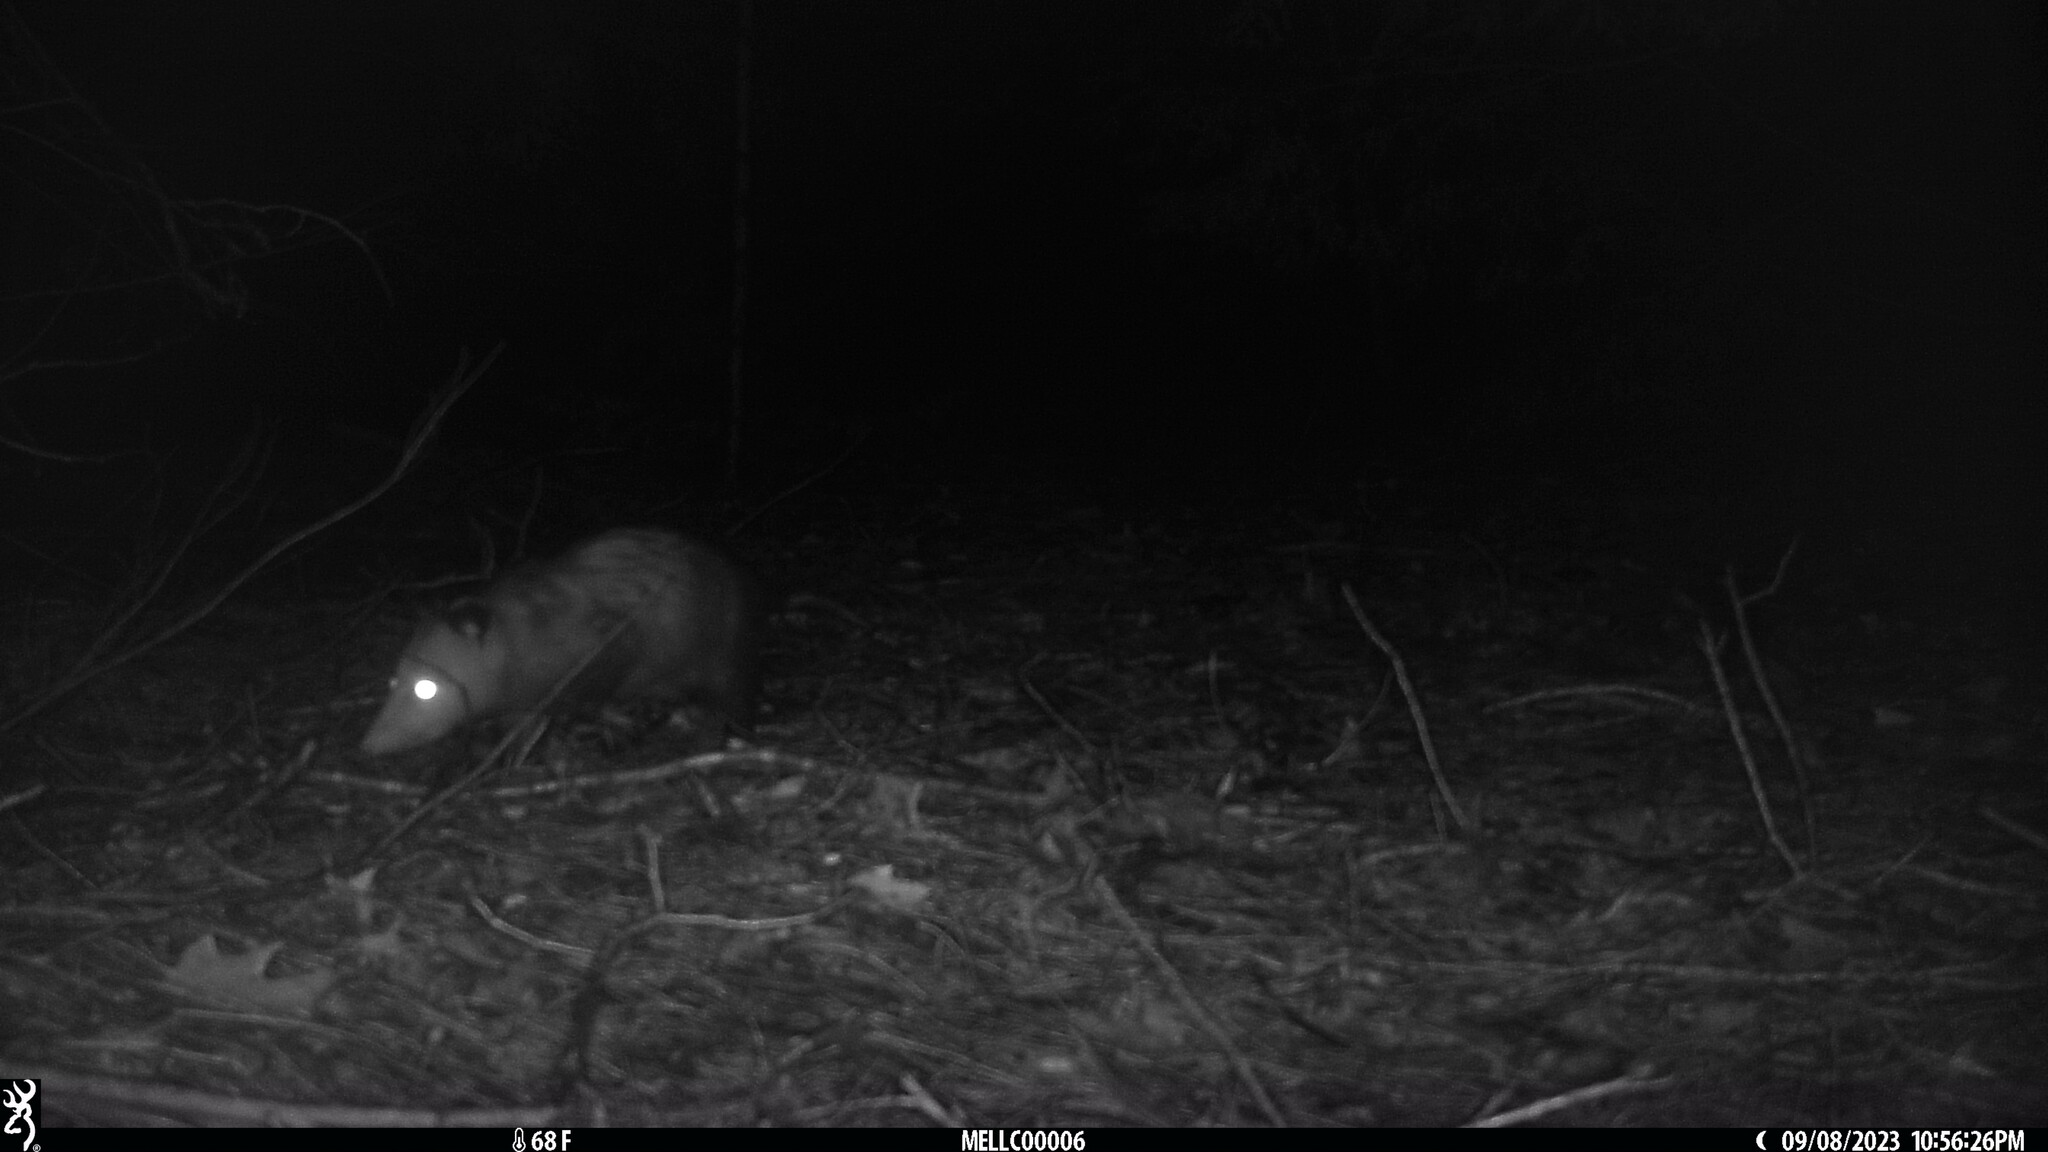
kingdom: Animalia
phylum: Chordata
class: Mammalia
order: Didelphimorphia
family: Didelphidae
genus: Didelphis
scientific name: Didelphis virginiana
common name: Virginia opossum
